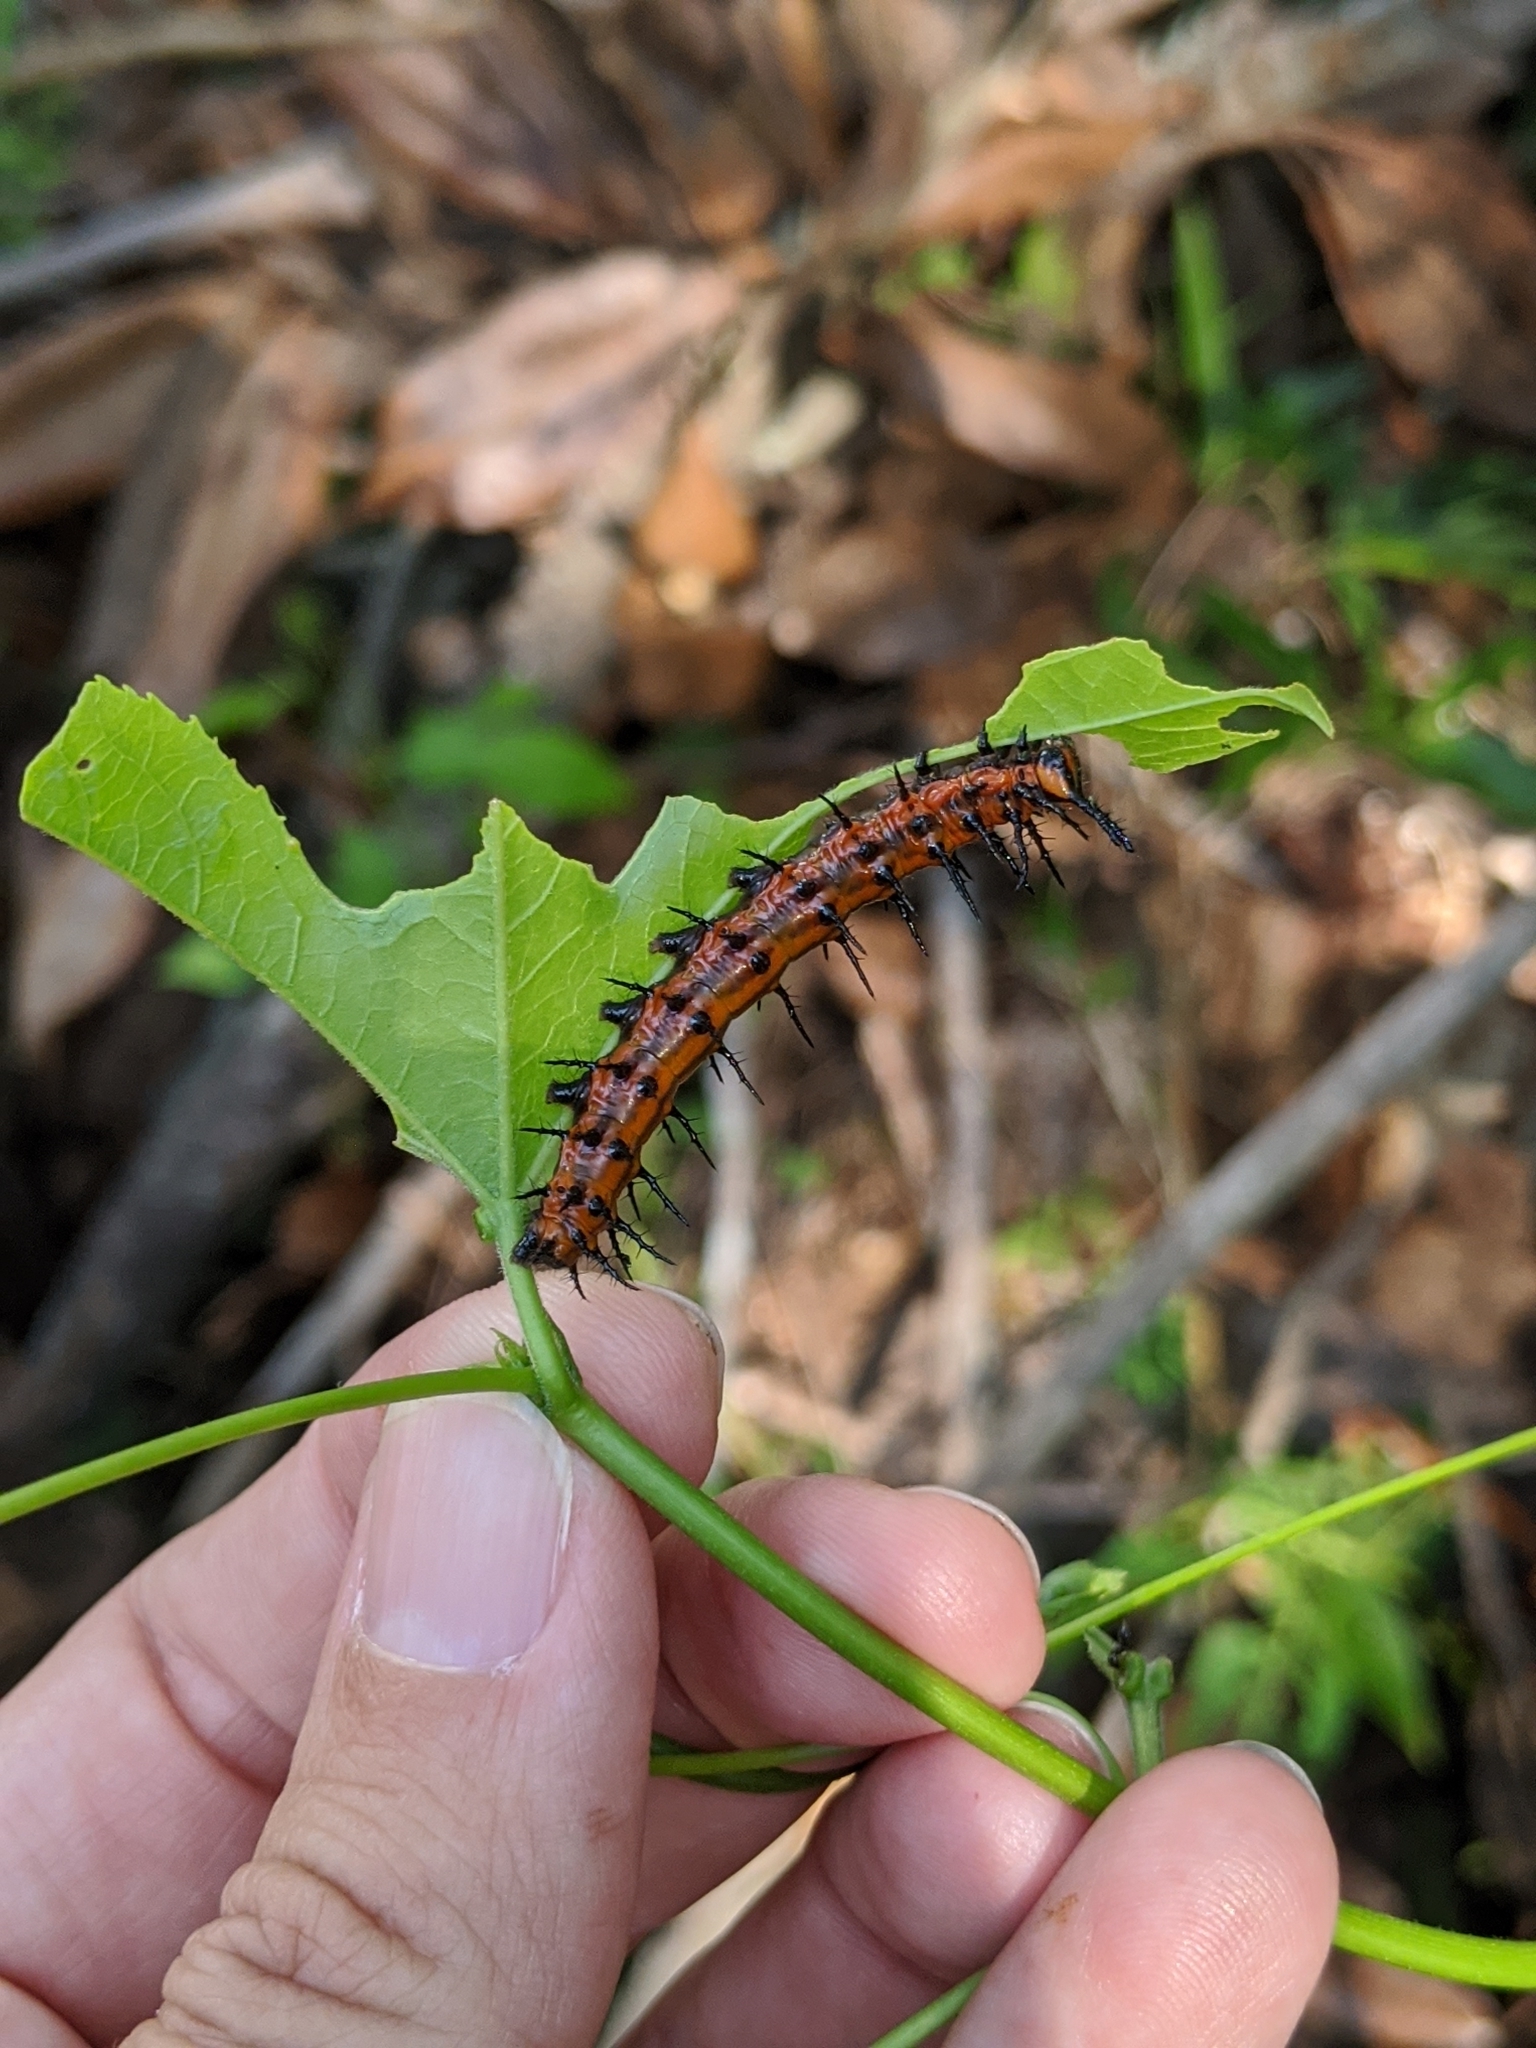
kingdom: Plantae
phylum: Tracheophyta
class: Magnoliopsida
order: Malpighiales
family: Passifloraceae
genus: Passiflora
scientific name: Passiflora incarnata
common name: Apricot-vine
